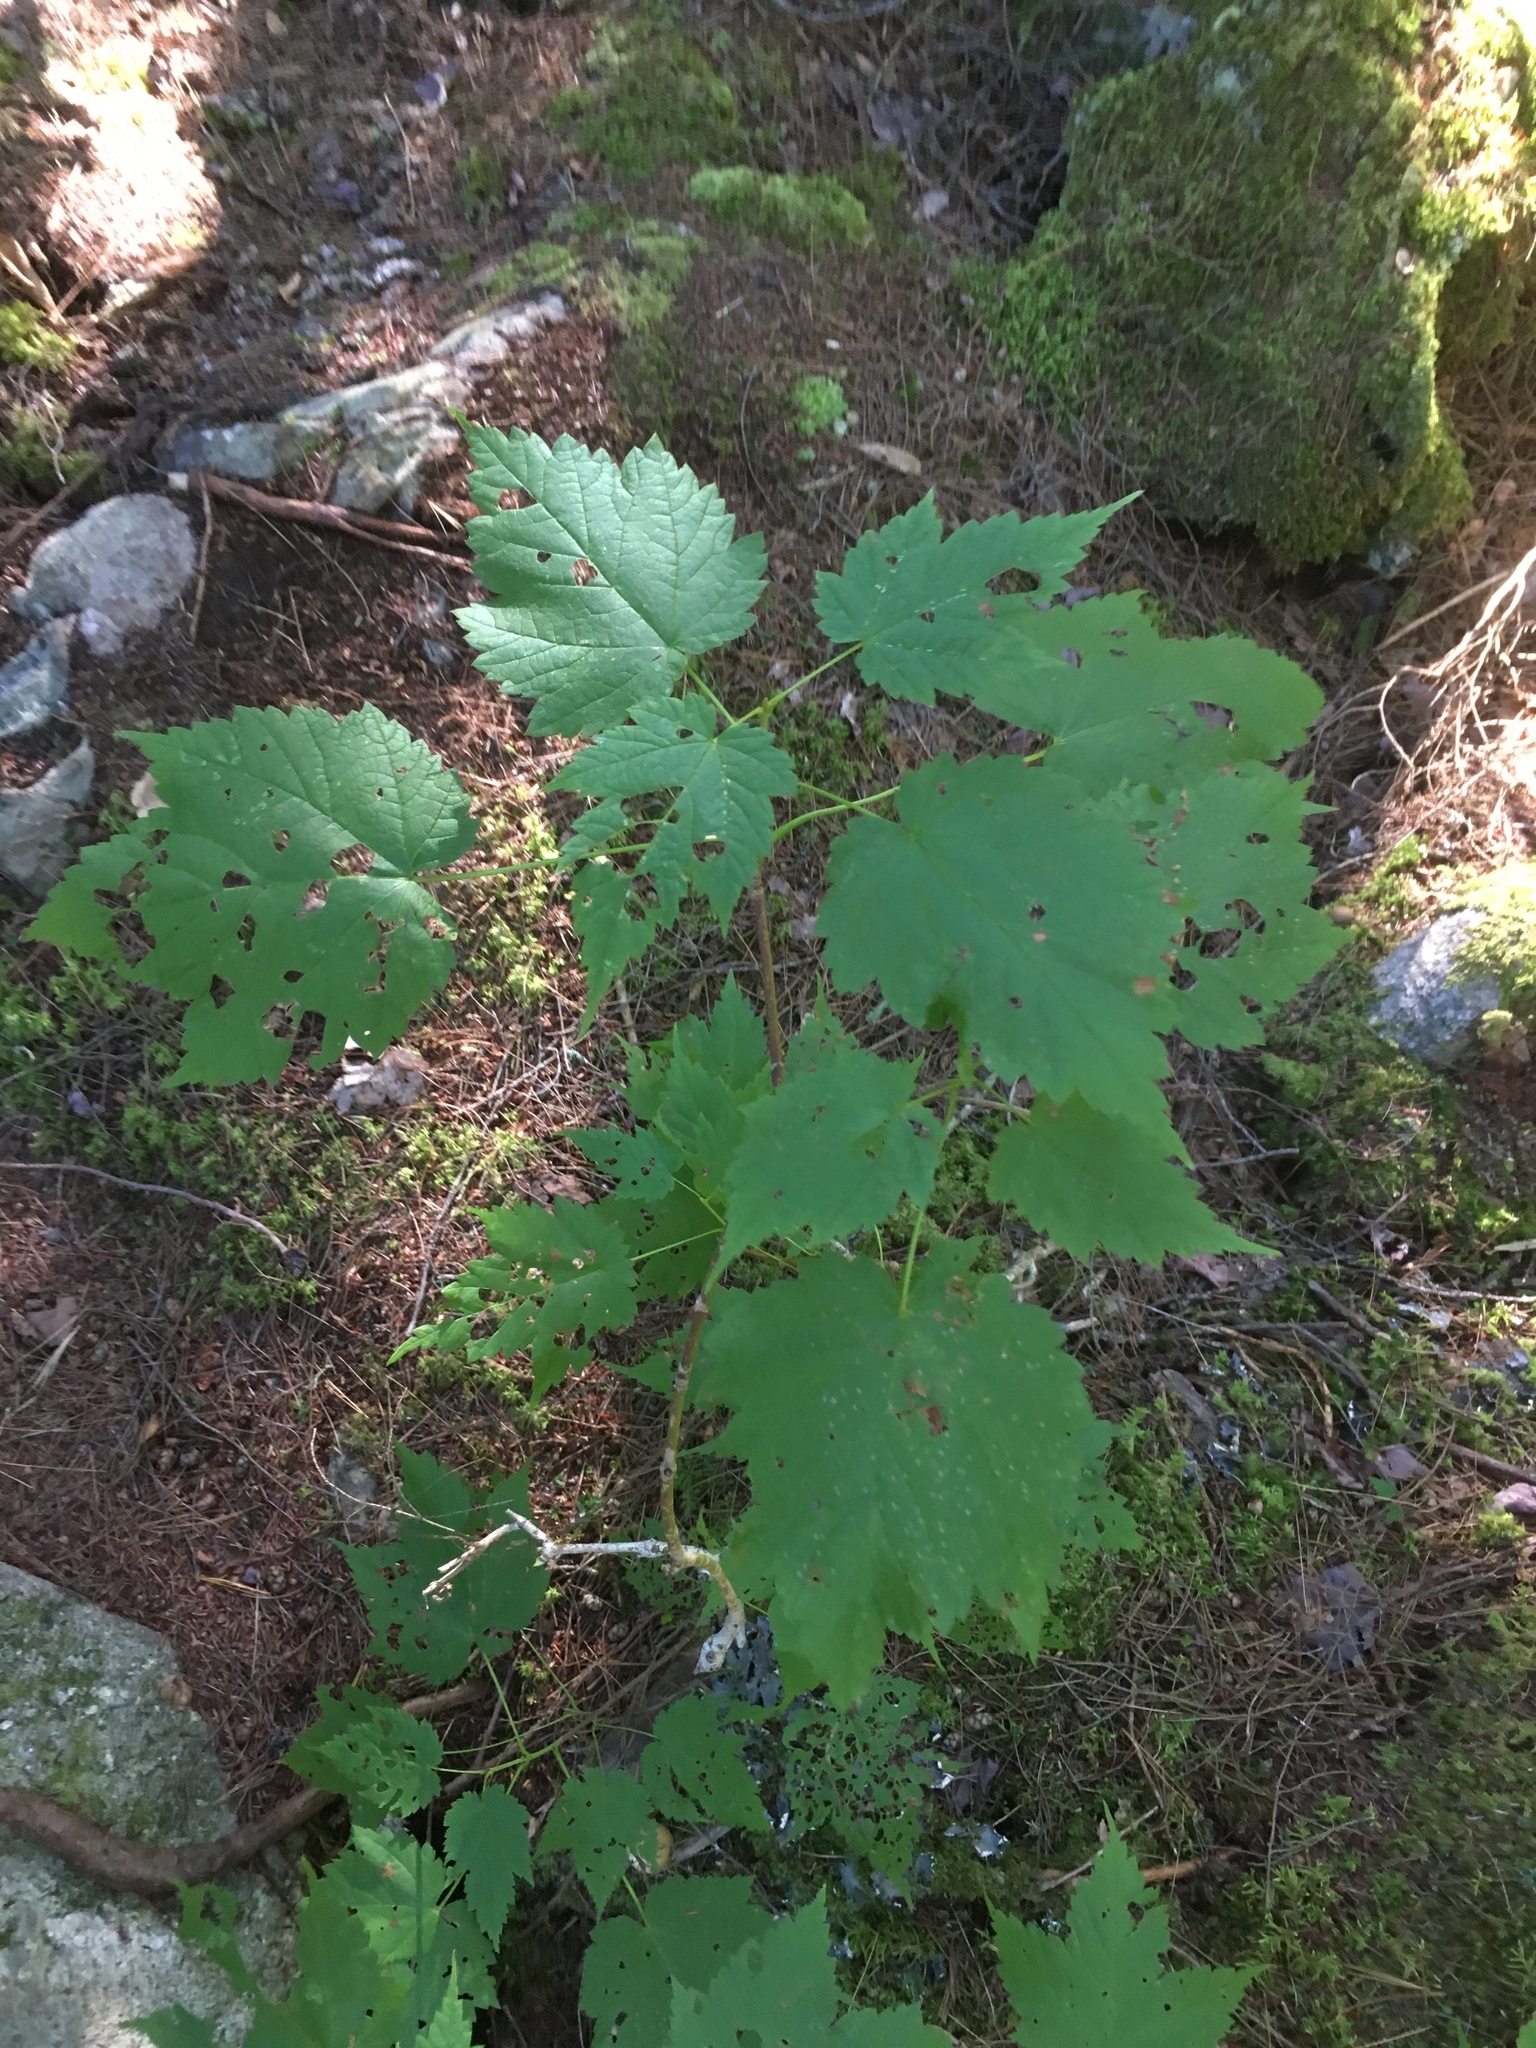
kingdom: Plantae
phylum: Tracheophyta
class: Magnoliopsida
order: Sapindales
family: Sapindaceae
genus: Acer
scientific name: Acer spicatum
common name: Mountain maple
